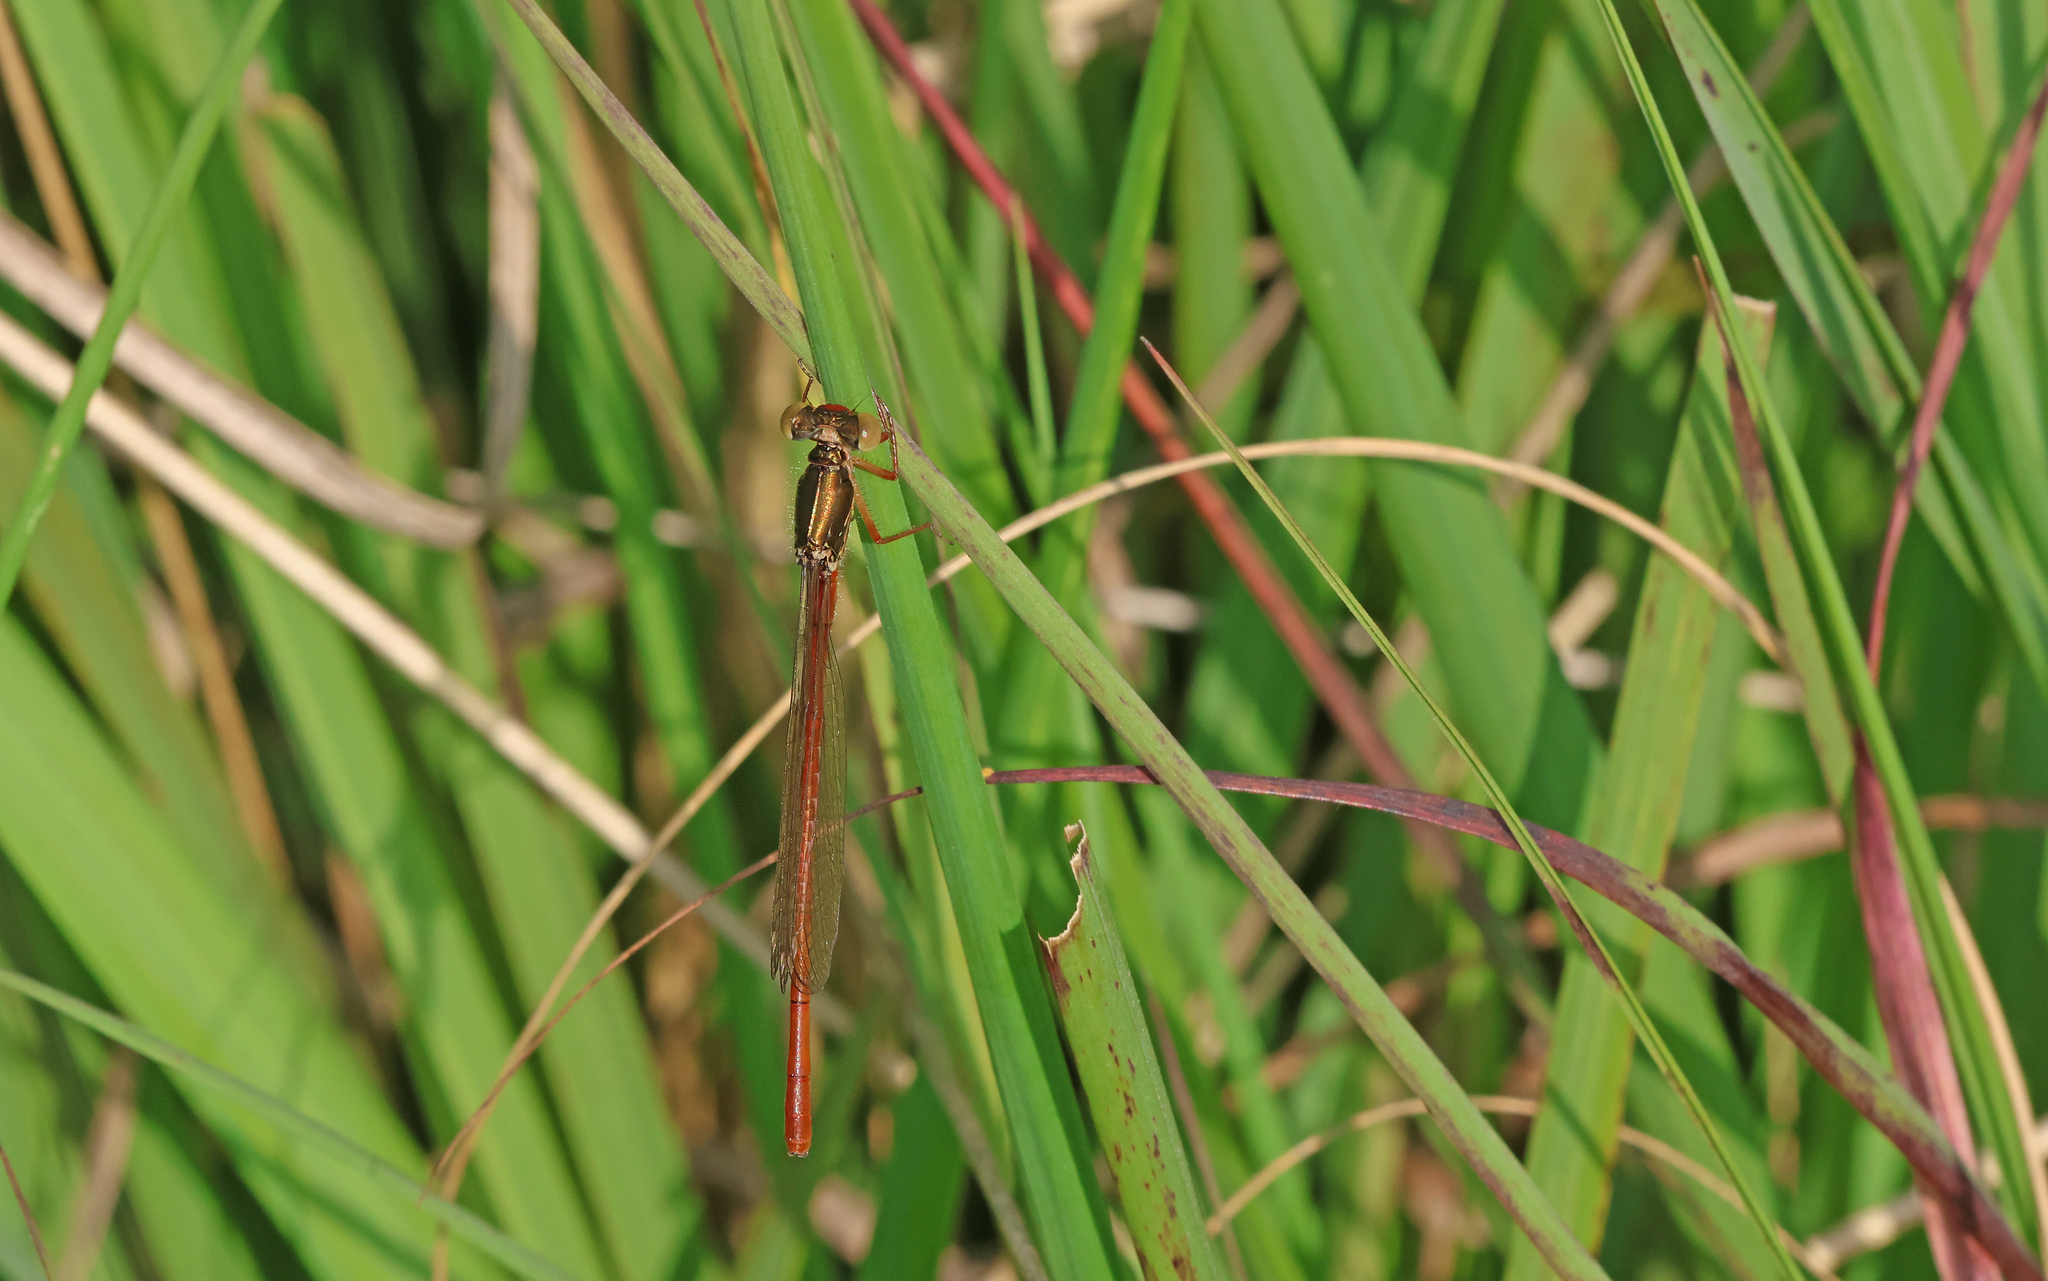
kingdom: Animalia
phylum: Arthropoda
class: Insecta
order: Odonata
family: Coenagrionidae
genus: Ceriagrion
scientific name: Ceriagrion tenellum
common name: Small red damselfly
